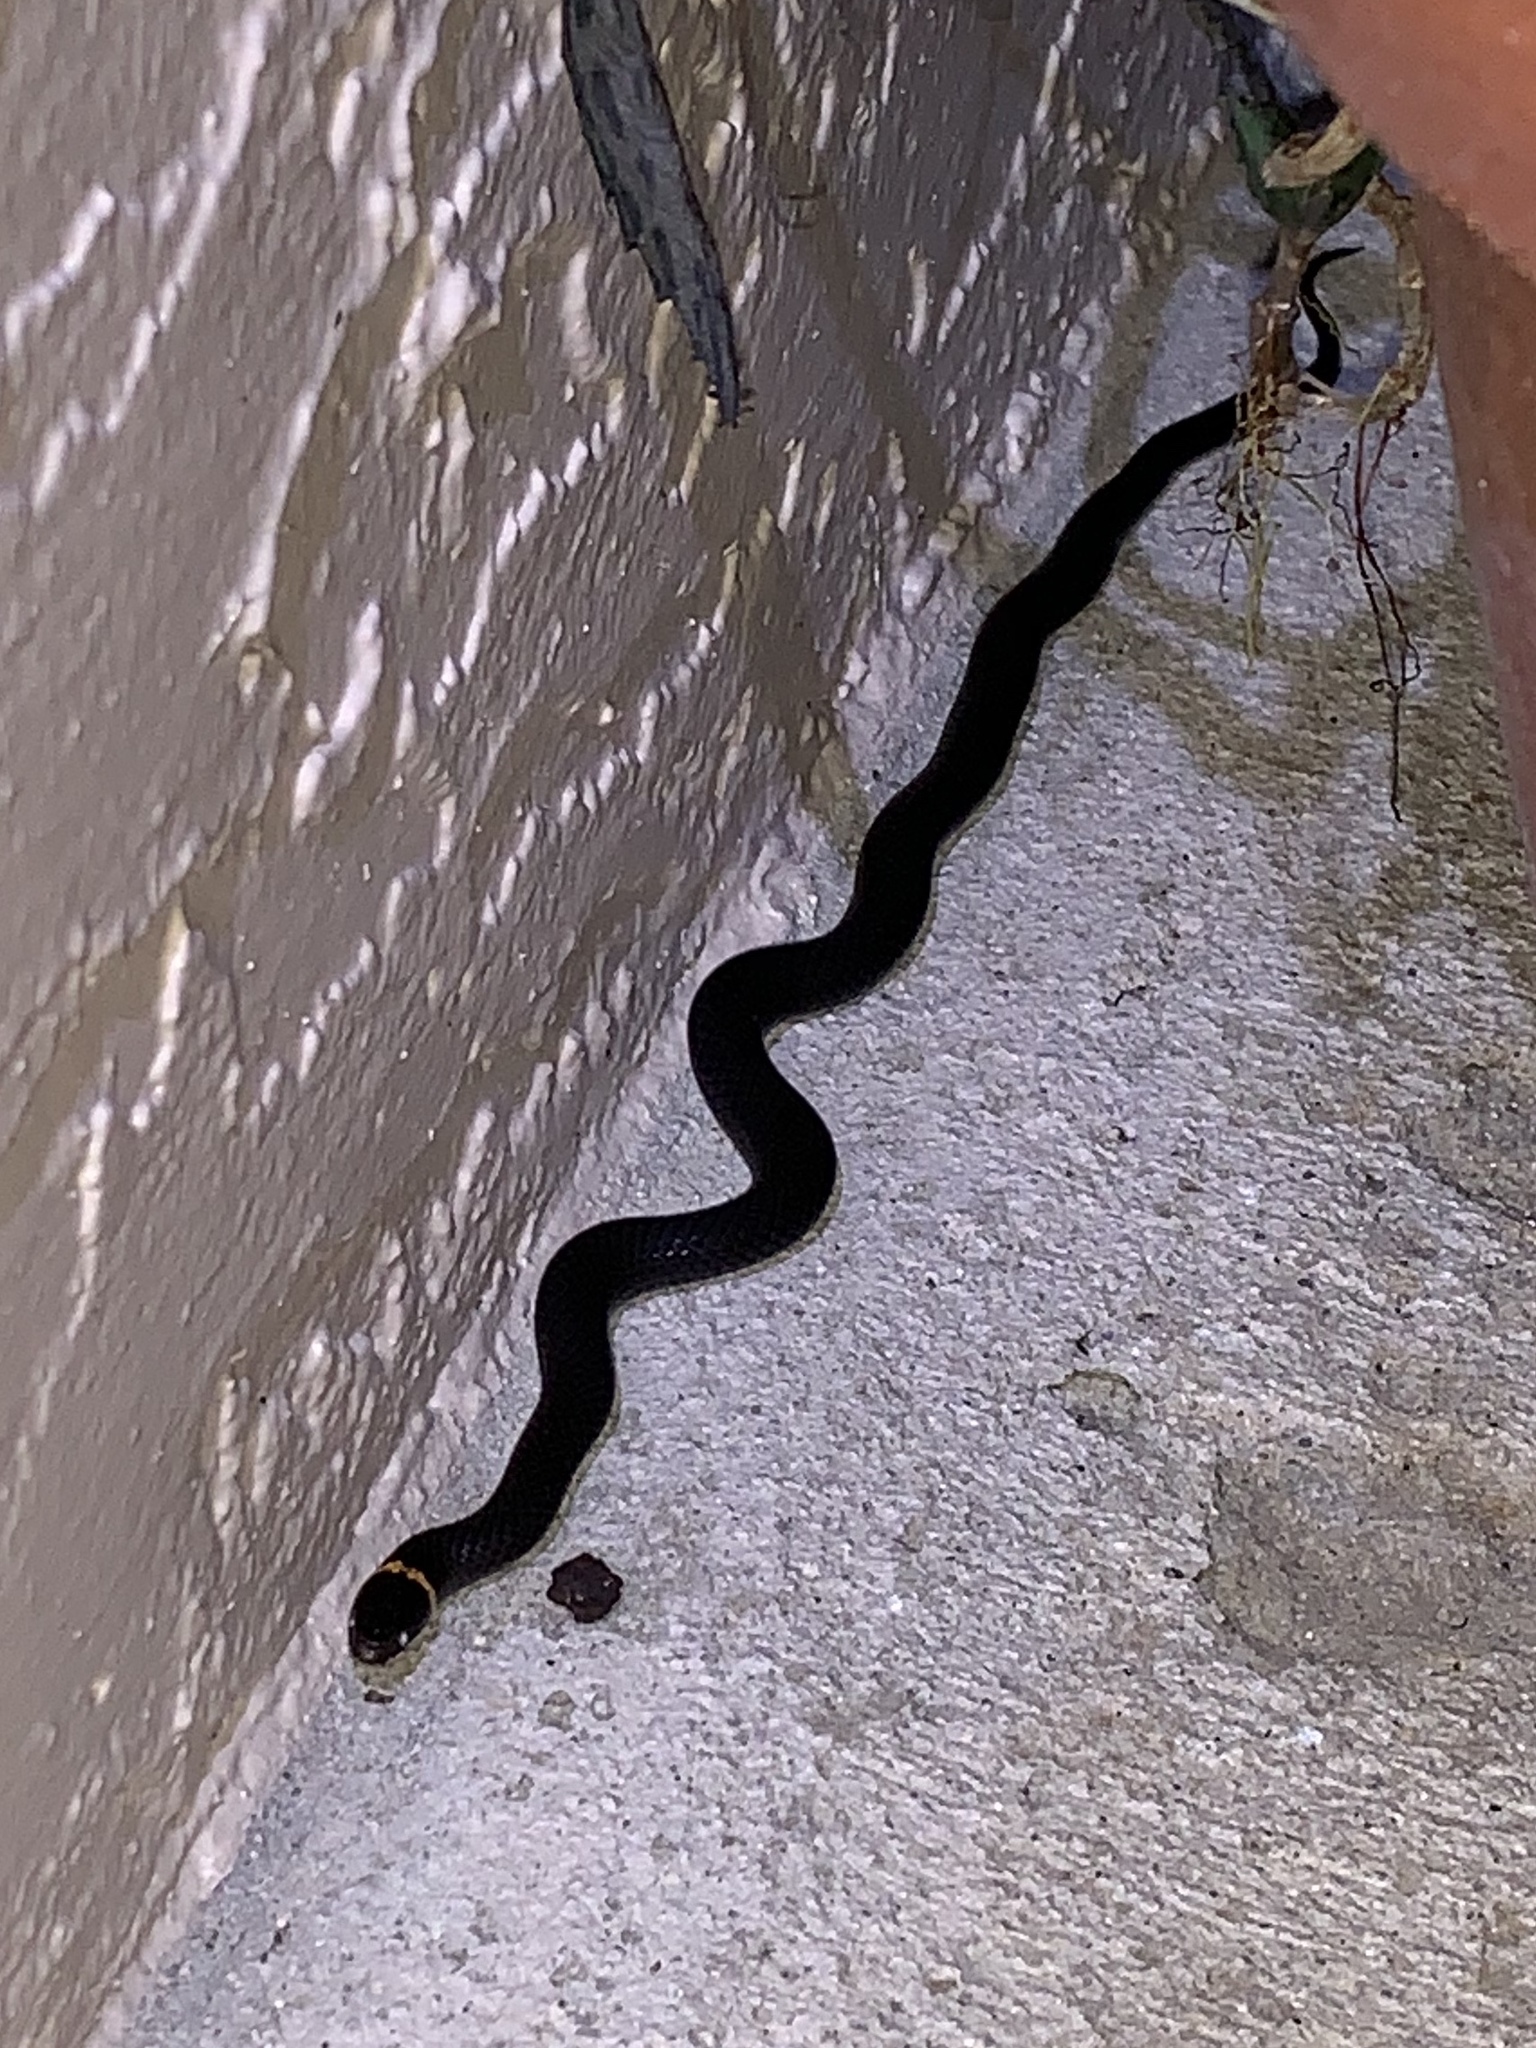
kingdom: Animalia
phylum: Chordata
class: Squamata
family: Colubridae
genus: Diadophis
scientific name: Diadophis punctatus
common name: Ringneck snake
